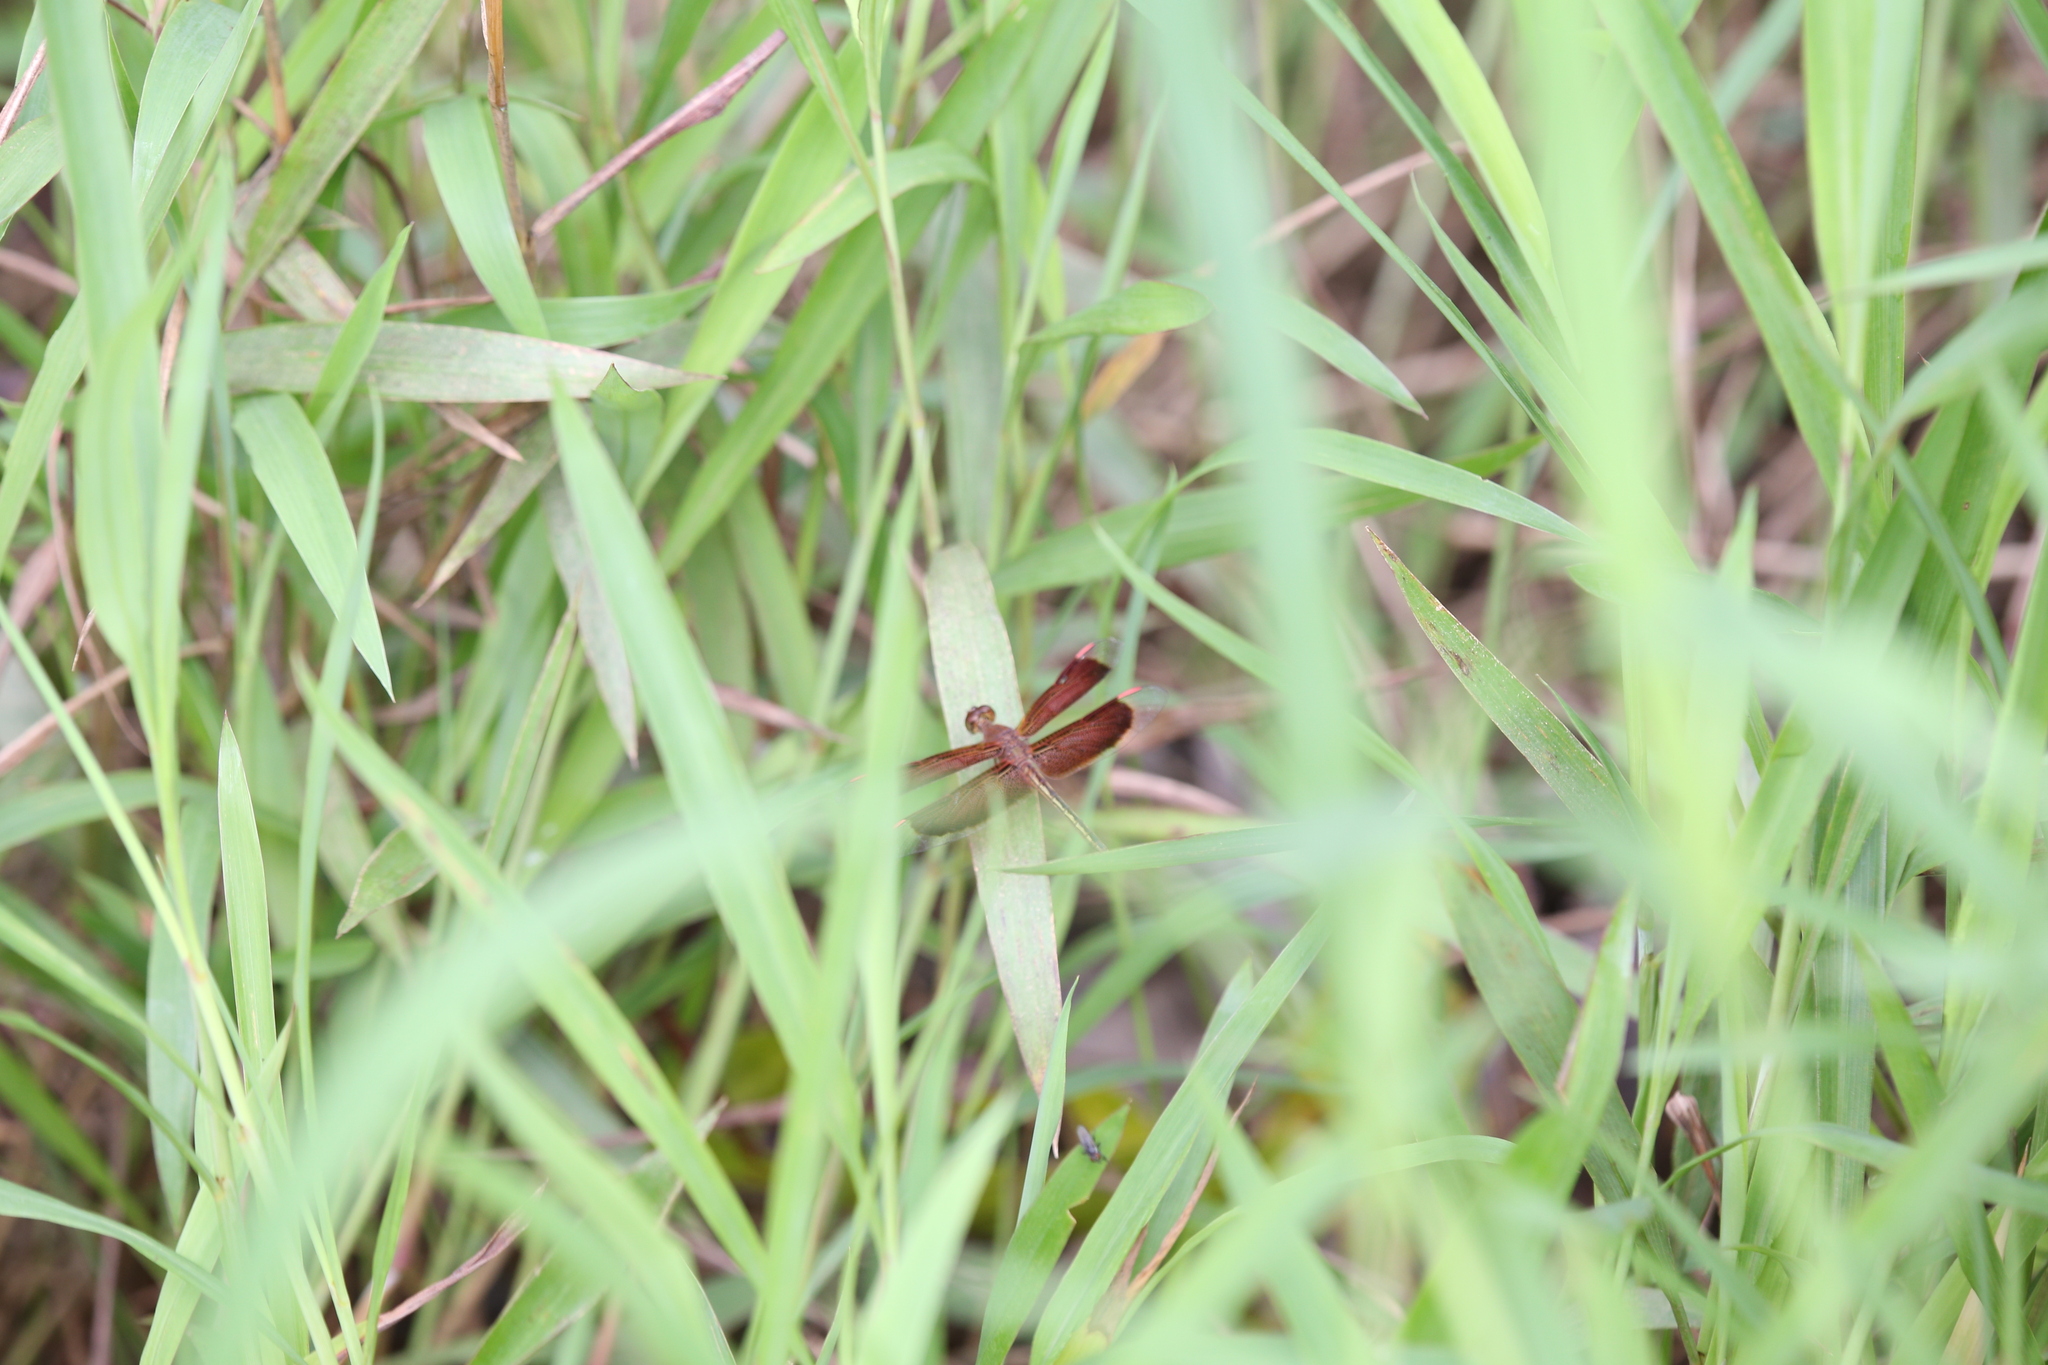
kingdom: Animalia
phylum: Arthropoda
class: Insecta
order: Odonata
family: Libellulidae
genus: Neurothemis
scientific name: Neurothemis stigmatizans
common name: Painted grasshawk
